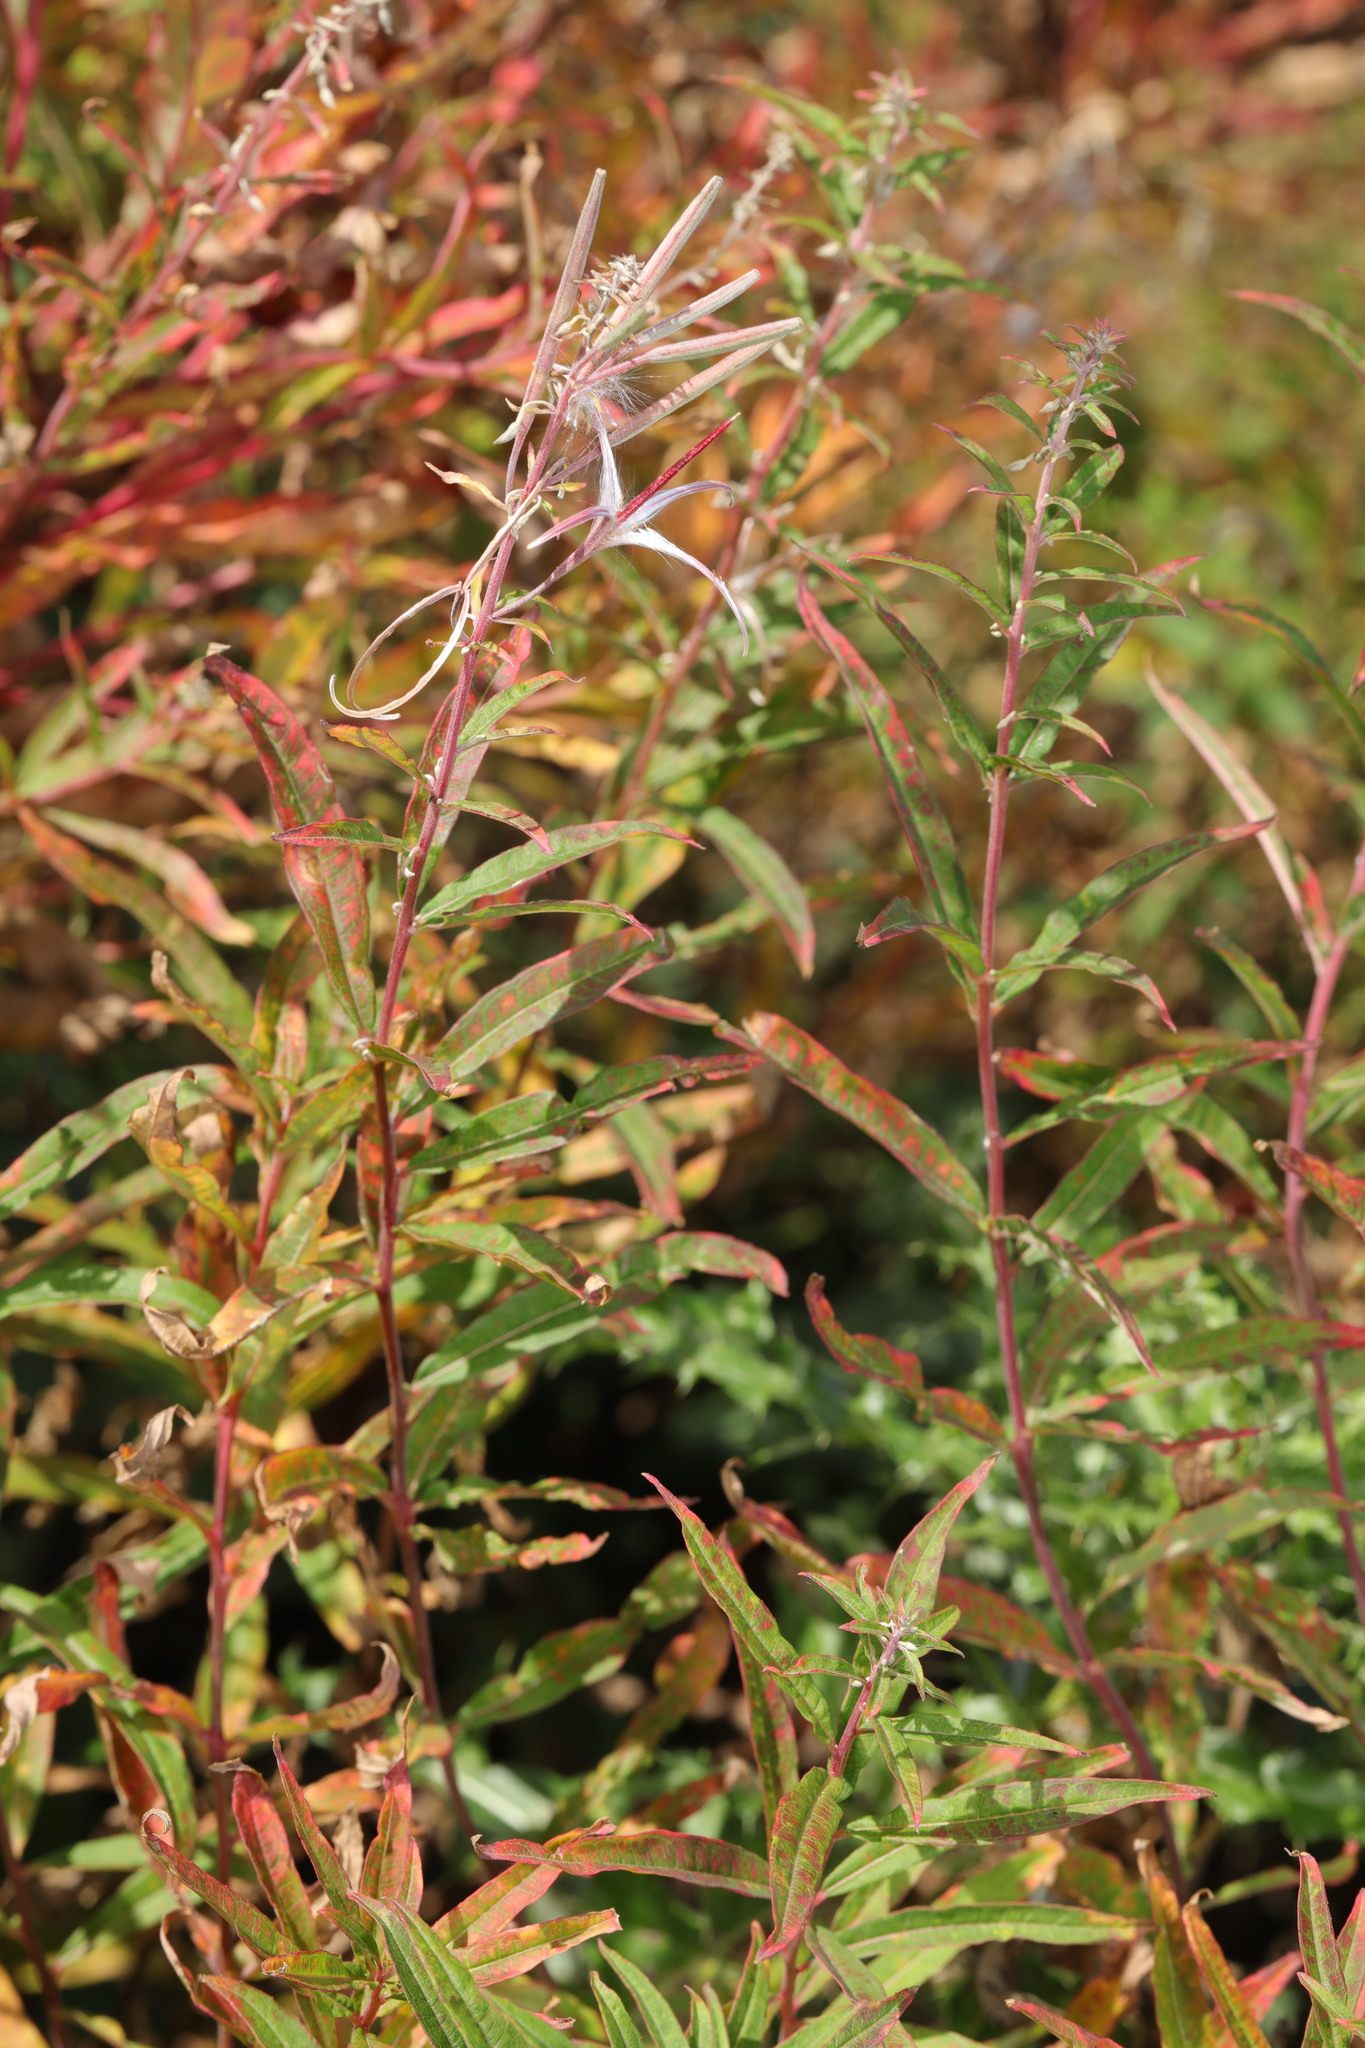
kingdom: Plantae
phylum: Tracheophyta
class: Magnoliopsida
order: Myrtales
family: Onagraceae
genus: Chamaenerion
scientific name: Chamaenerion angustifolium
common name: Fireweed
